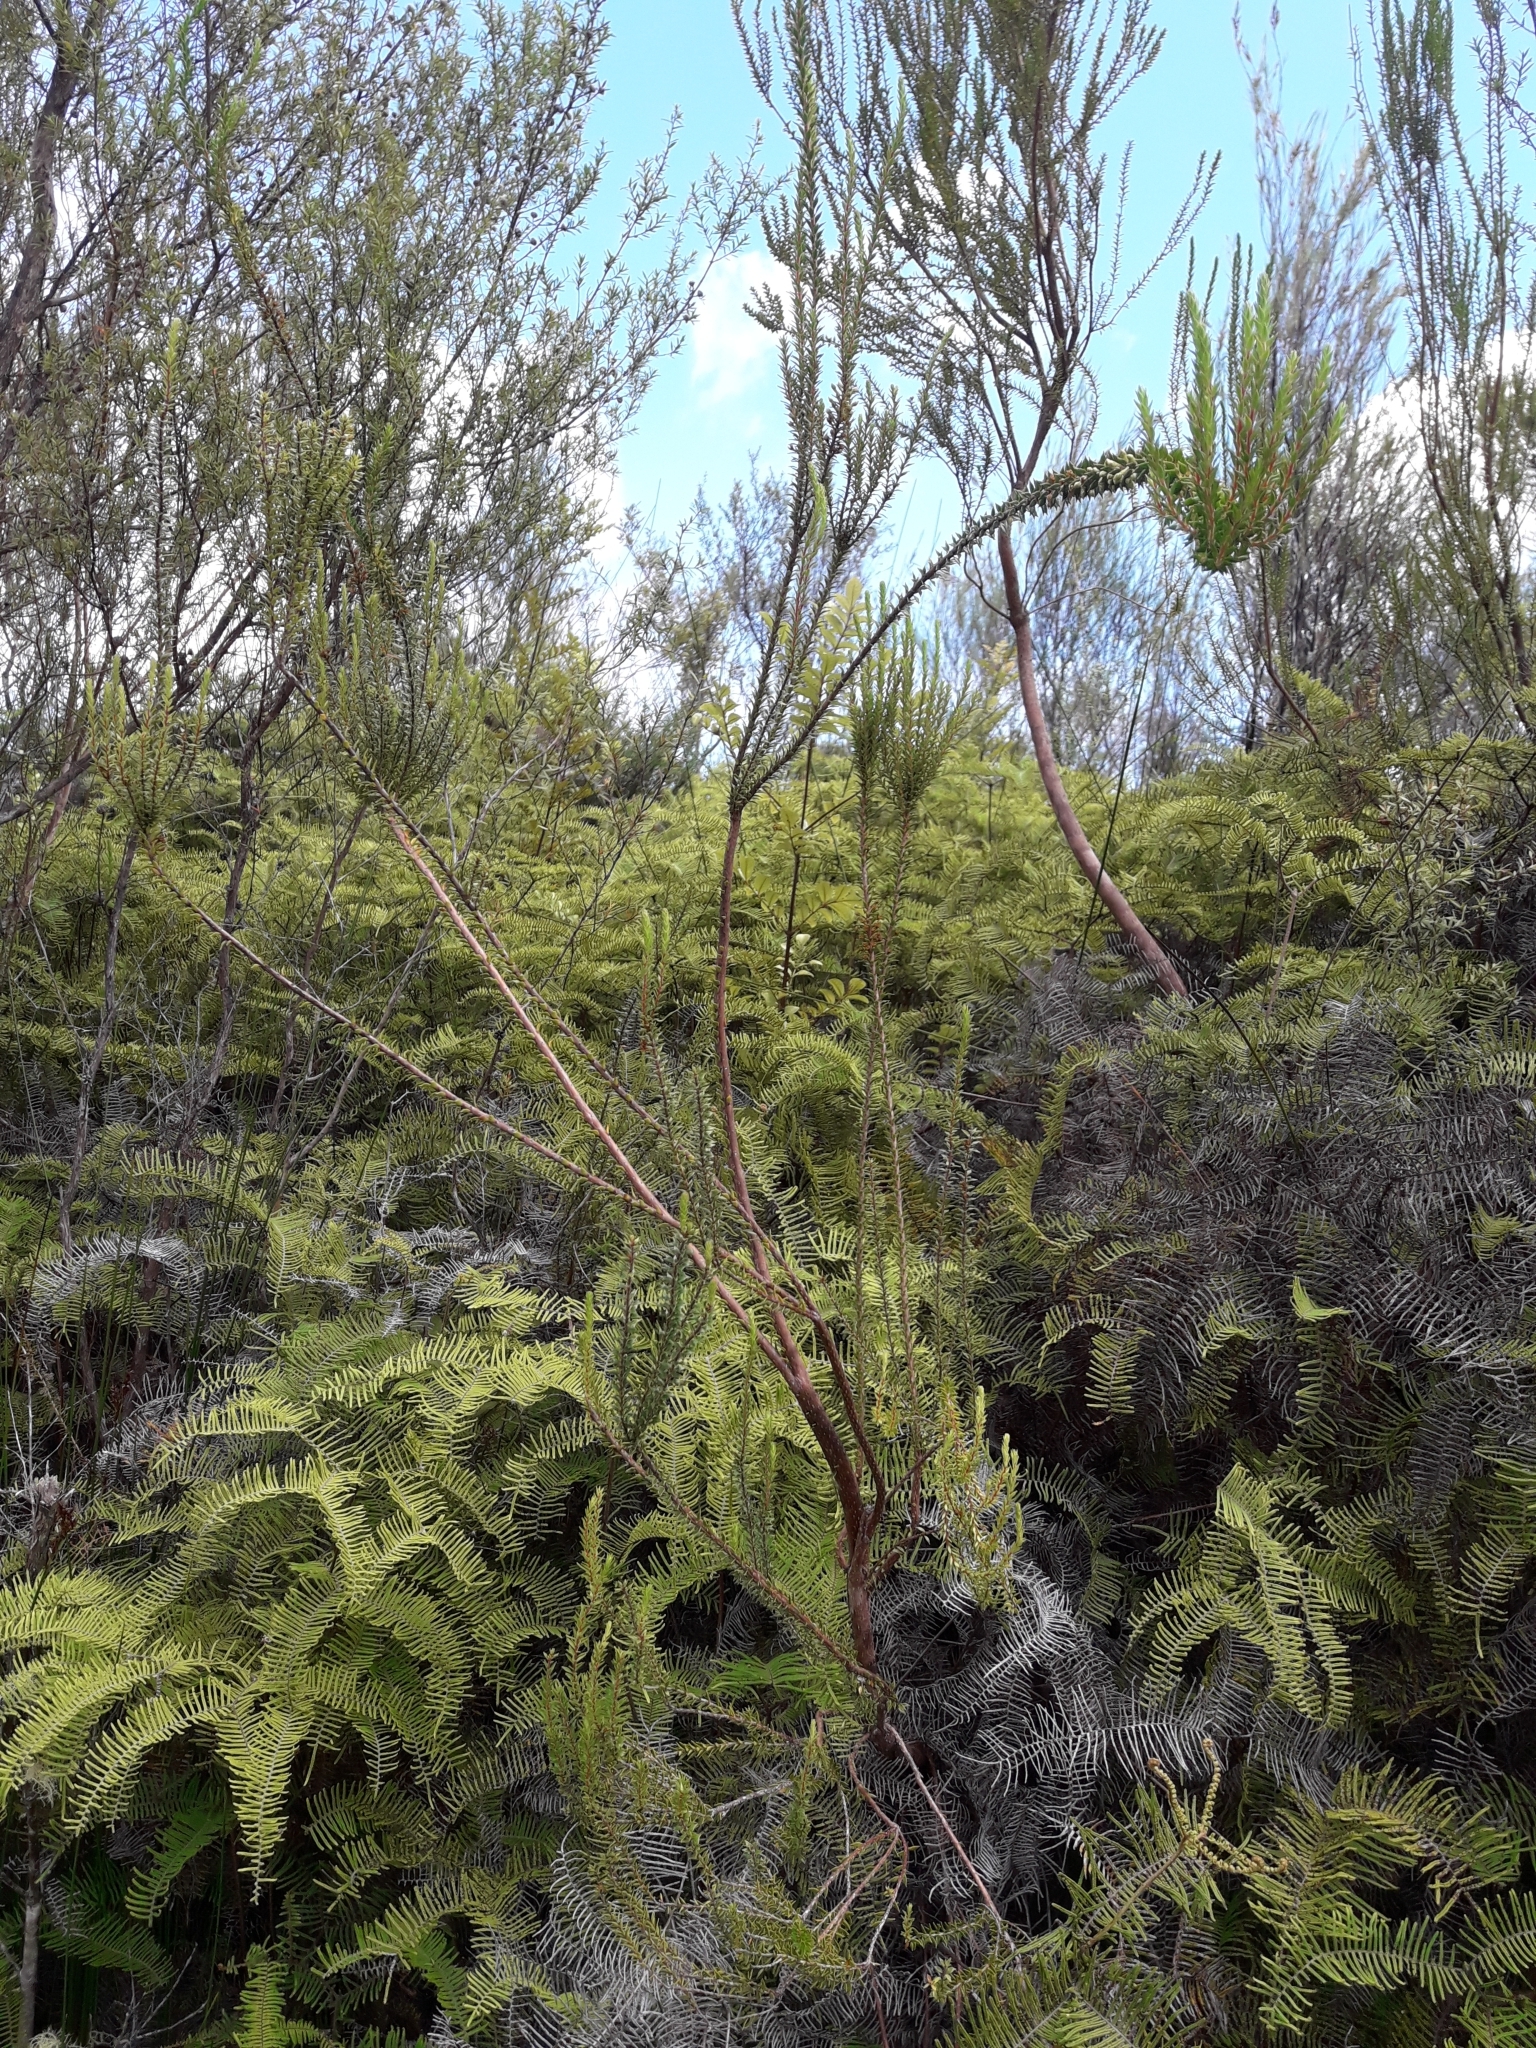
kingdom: Plantae
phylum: Tracheophyta
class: Magnoliopsida
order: Ericales
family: Ericaceae
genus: Epacris
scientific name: Epacris pauciflora
